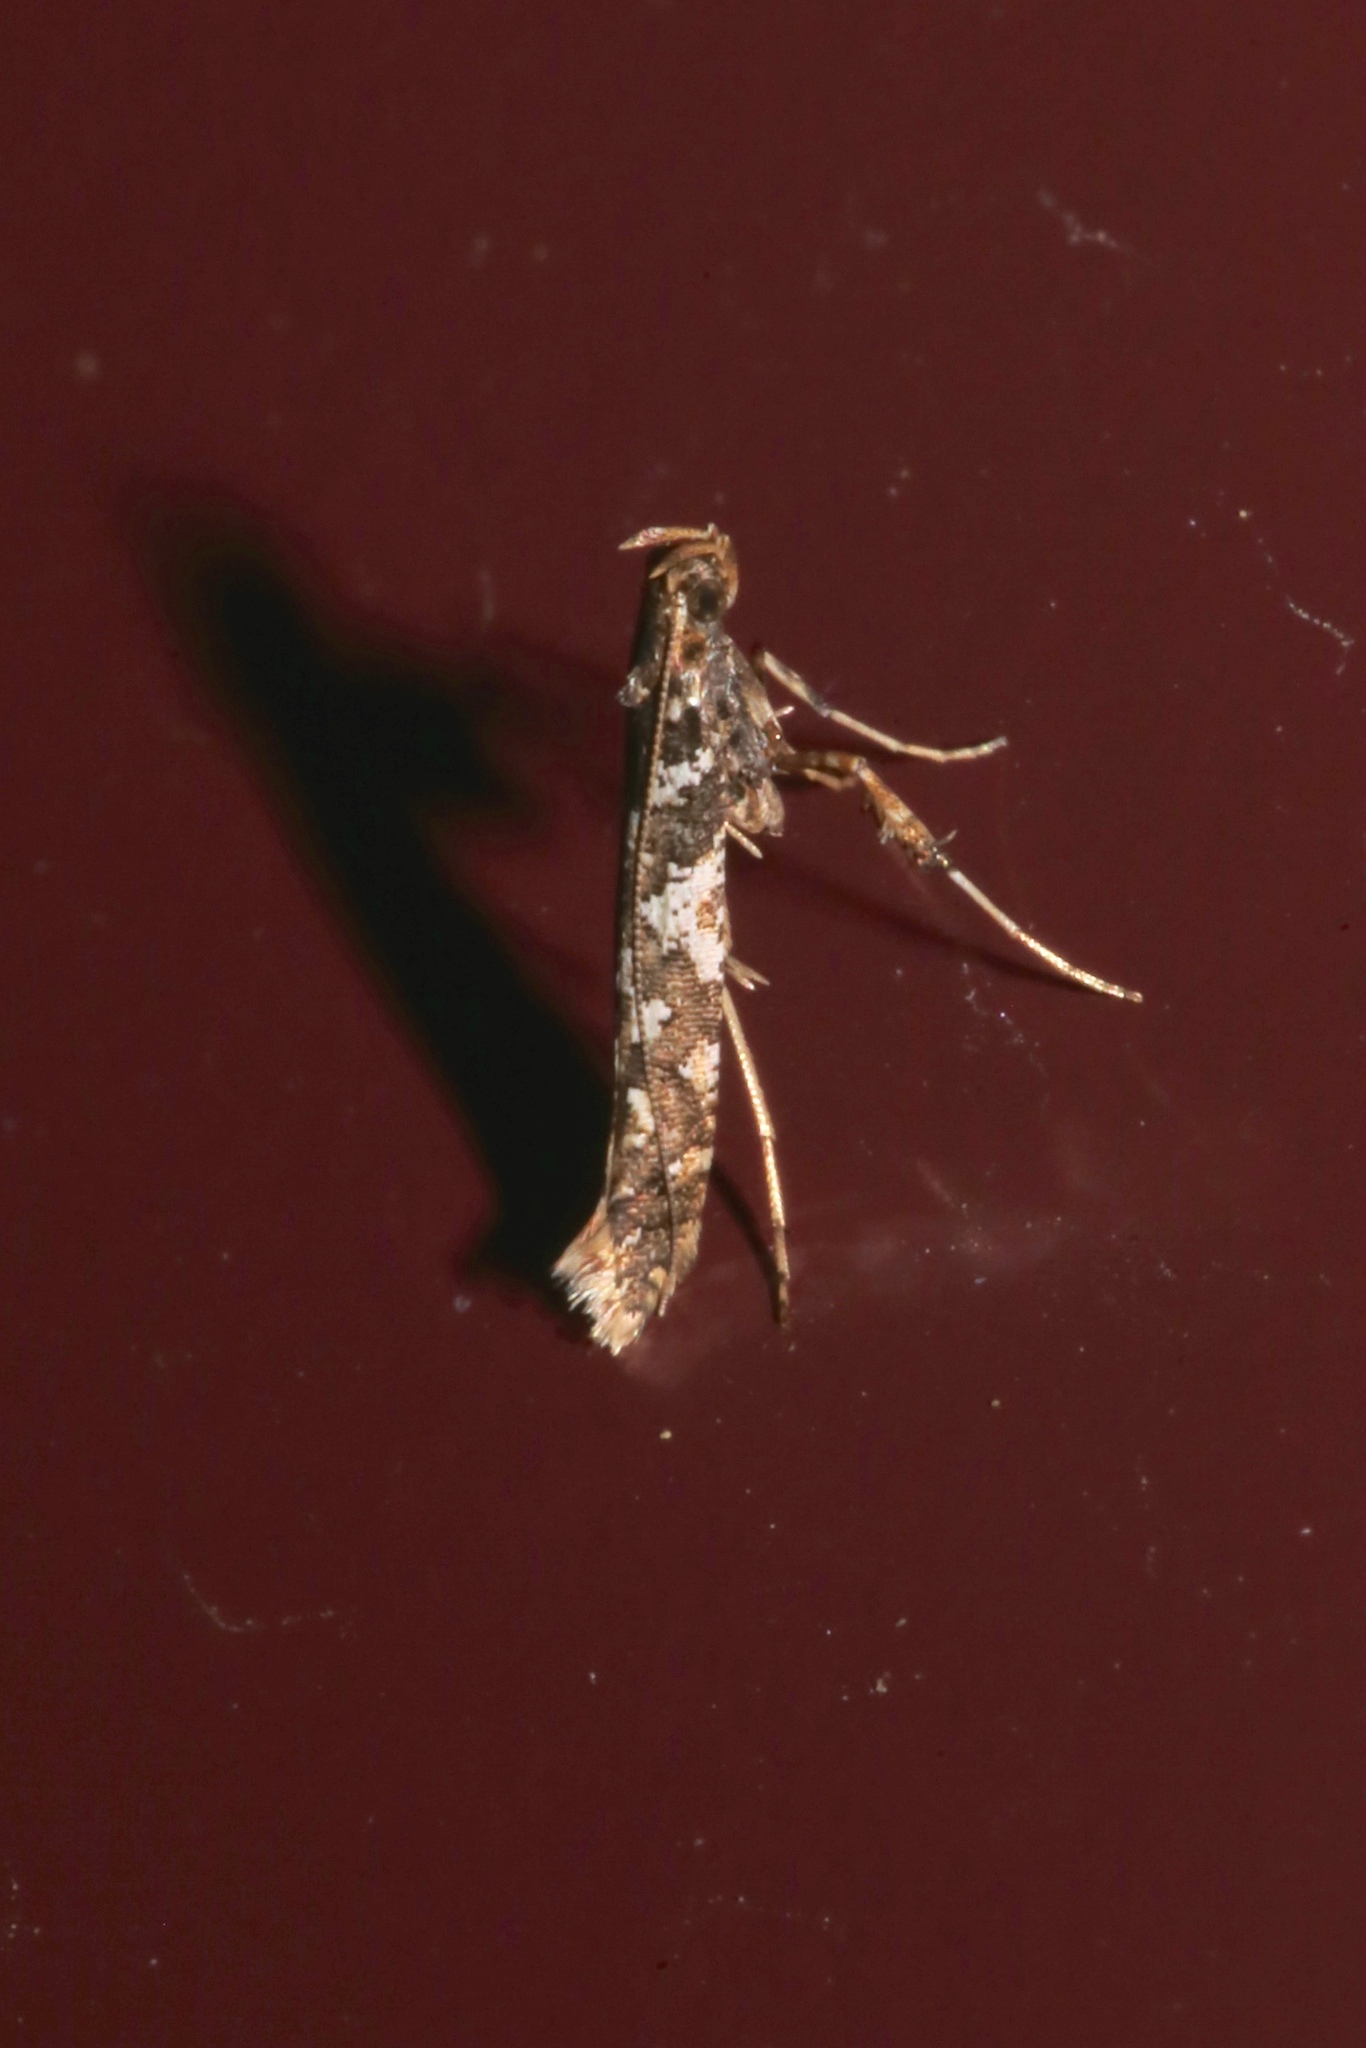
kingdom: Animalia
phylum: Arthropoda
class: Insecta
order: Lepidoptera
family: Gracillariidae
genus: Caloptilia
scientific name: Caloptilia serotinella
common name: Cherry leafroller moth
